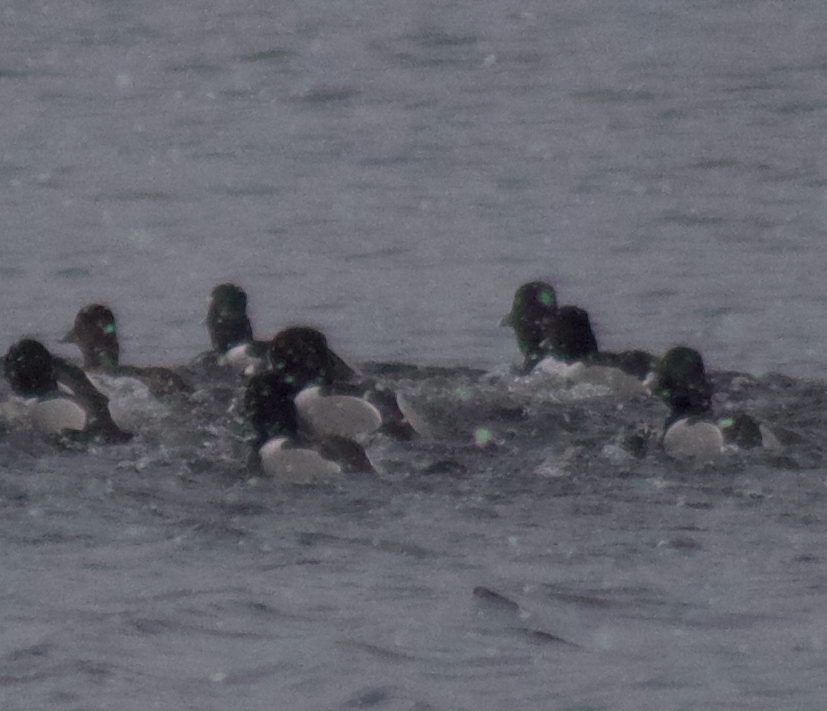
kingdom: Animalia
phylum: Chordata
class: Aves
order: Anseriformes
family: Anatidae
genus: Aythya
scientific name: Aythya collaris
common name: Ring-necked duck
